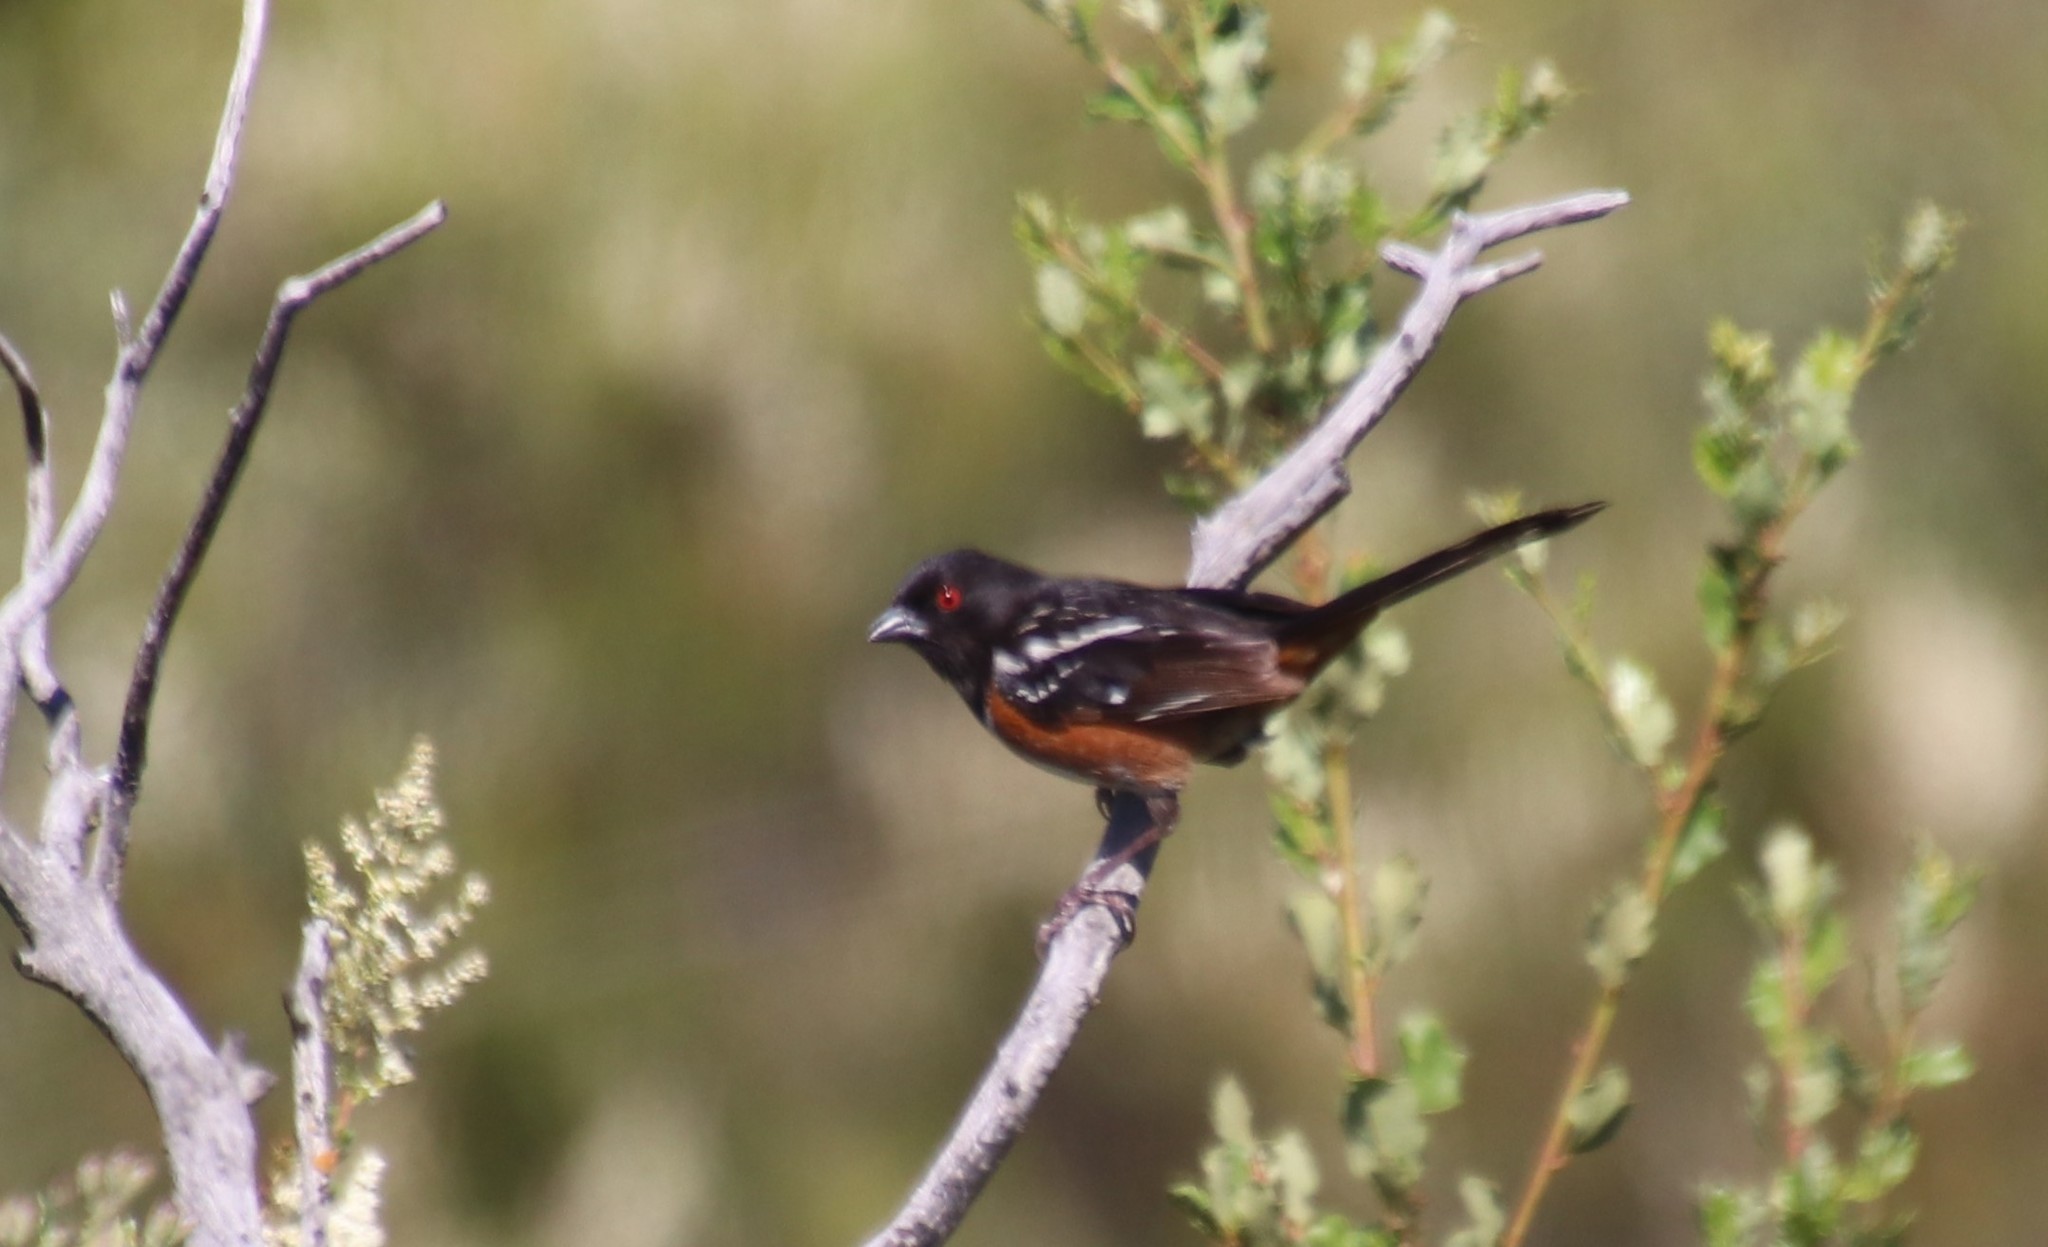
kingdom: Animalia
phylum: Chordata
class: Aves
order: Passeriformes
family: Passerellidae
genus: Pipilo
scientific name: Pipilo maculatus
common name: Spotted towhee
